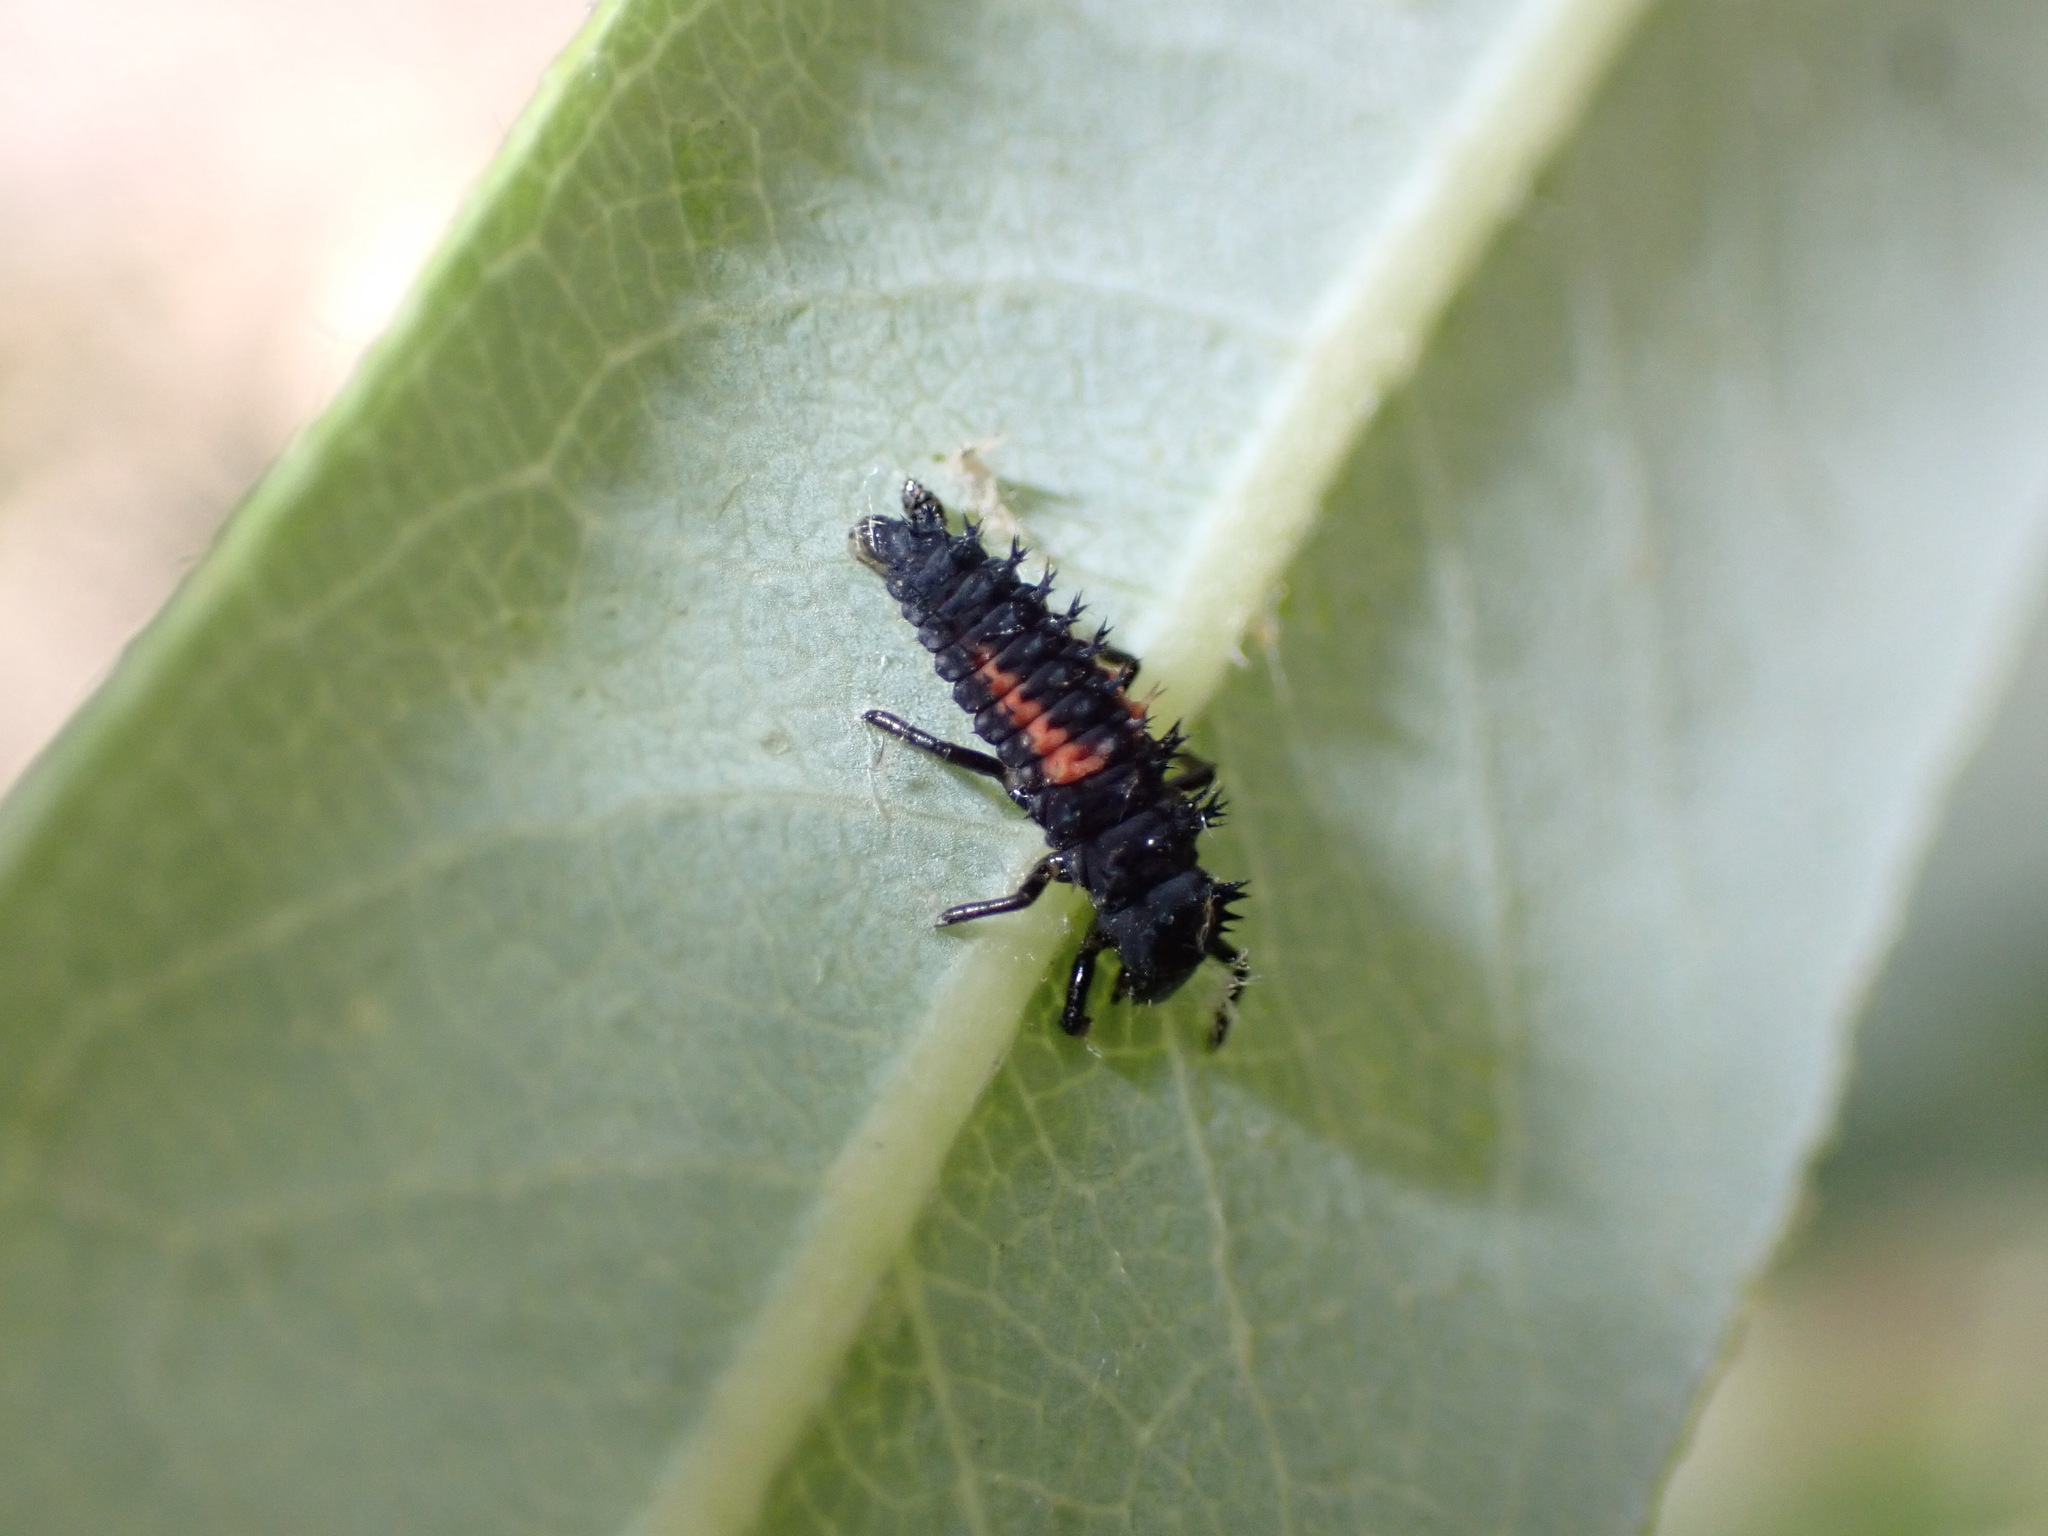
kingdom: Animalia
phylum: Arthropoda
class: Insecta
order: Coleoptera
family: Coccinellidae
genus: Harmonia
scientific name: Harmonia axyridis
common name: Harlequin ladybird
